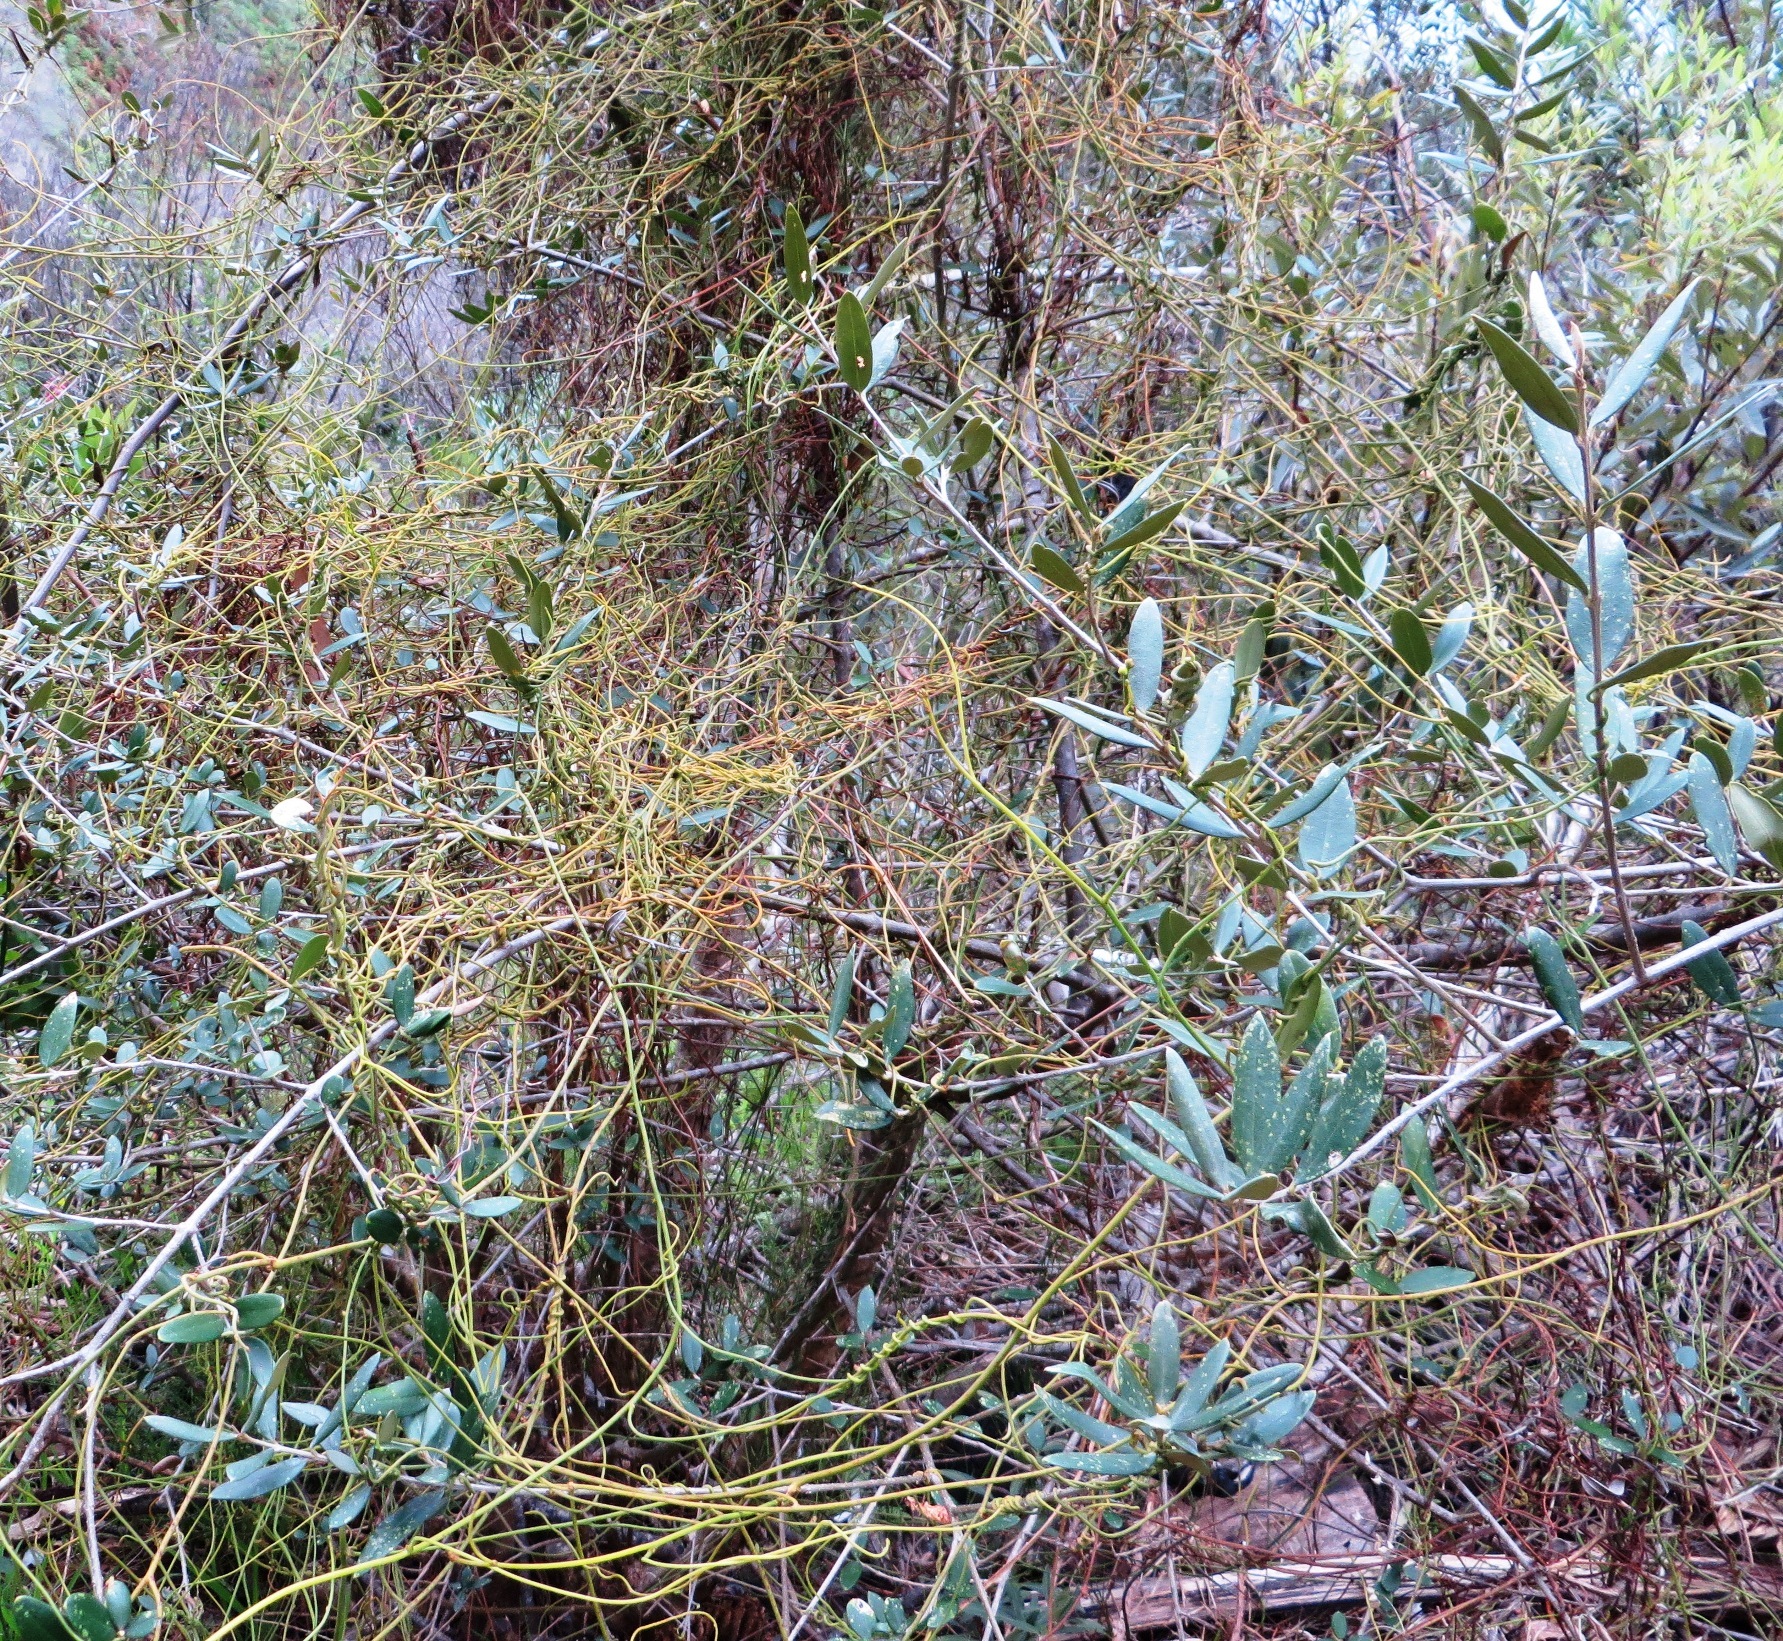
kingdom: Plantae
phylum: Tracheophyta
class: Magnoliopsida
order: Laurales
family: Lauraceae
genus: Cassytha
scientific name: Cassytha ciliolata
